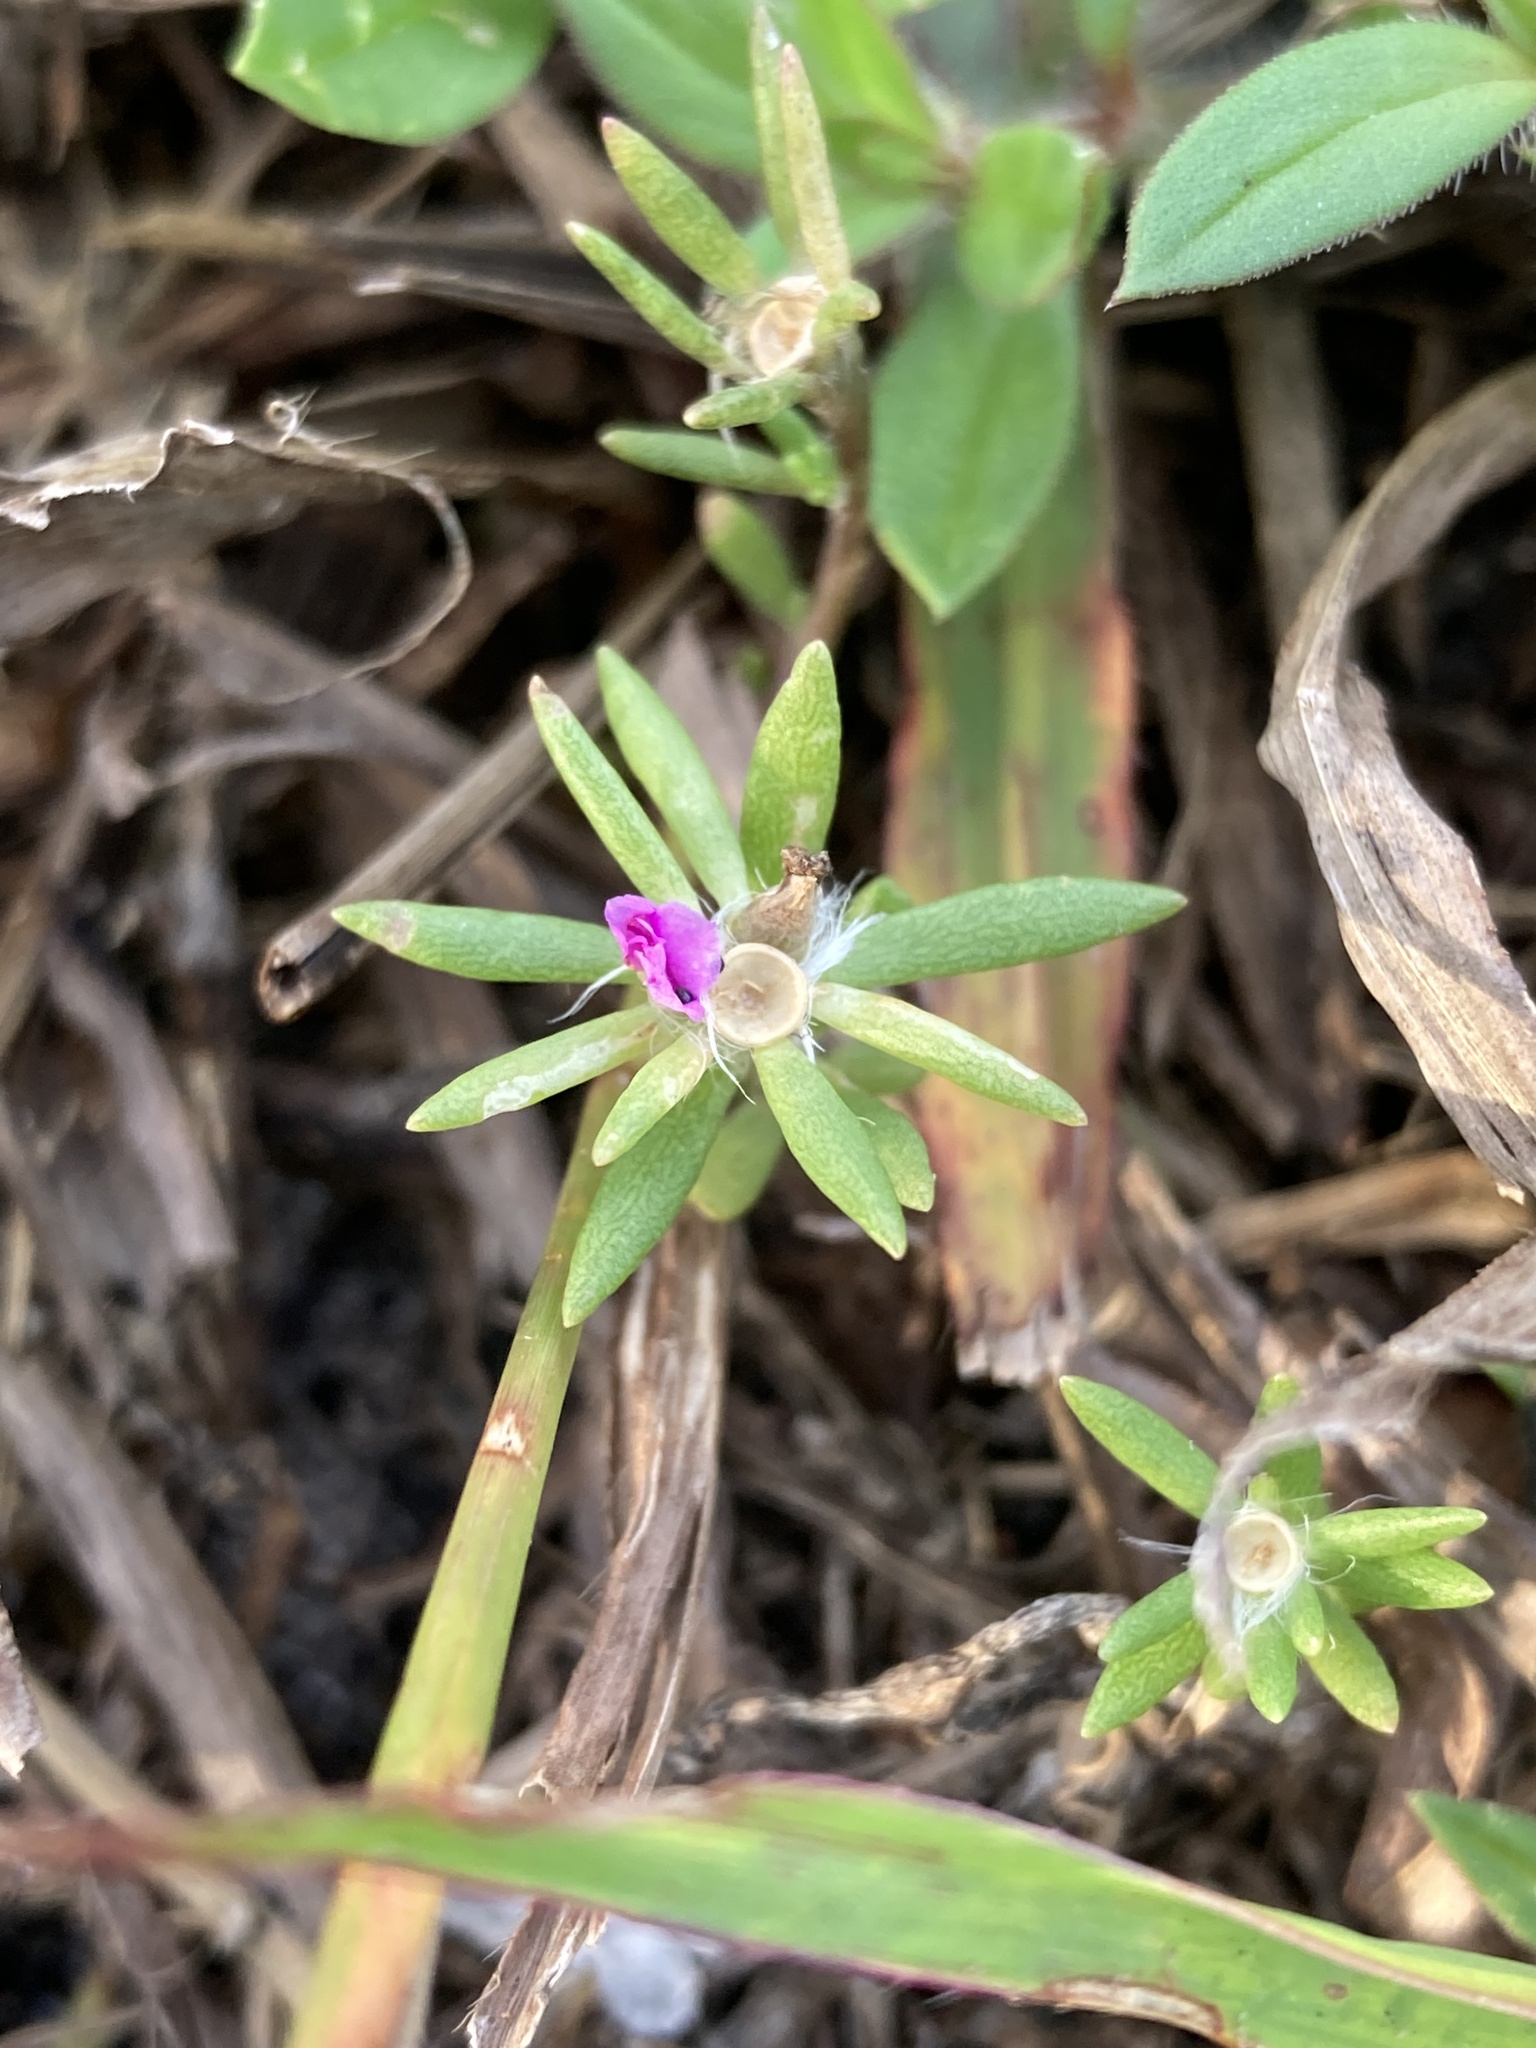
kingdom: Plantae
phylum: Tracheophyta
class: Magnoliopsida
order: Caryophyllales
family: Portulacaceae
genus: Portulaca
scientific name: Portulaca pilosa
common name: Kiss me quick
